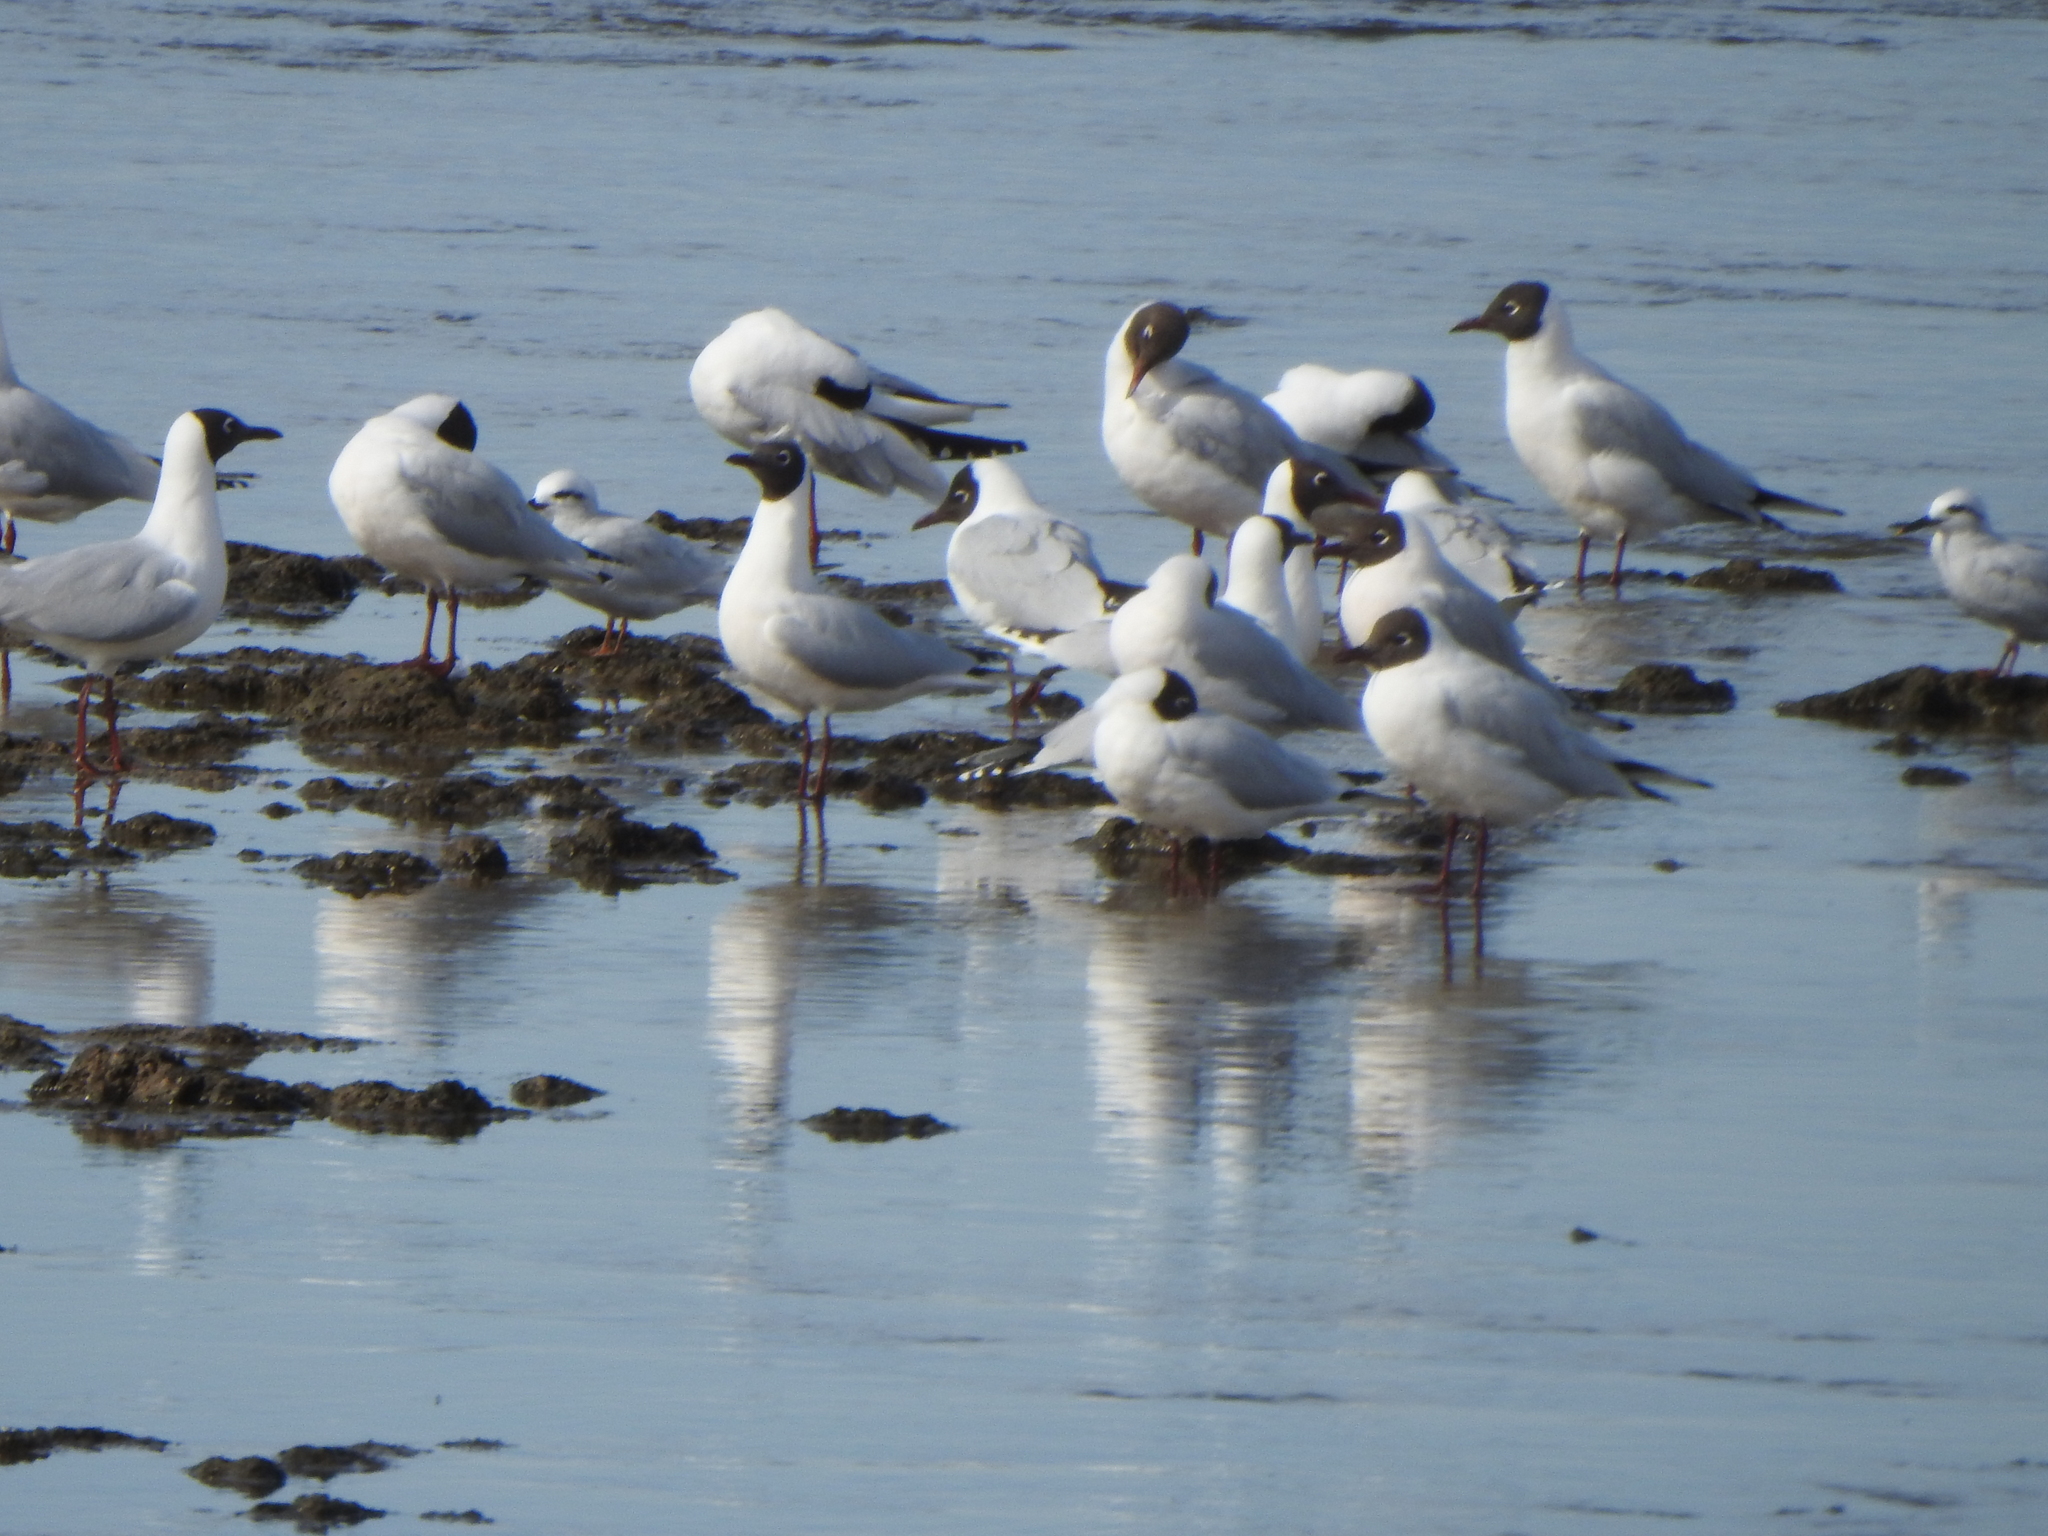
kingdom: Animalia
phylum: Chordata
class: Aves
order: Charadriiformes
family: Laridae
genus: Chroicocephalus
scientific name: Chroicocephalus maculipennis
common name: Brown-hooded gull
